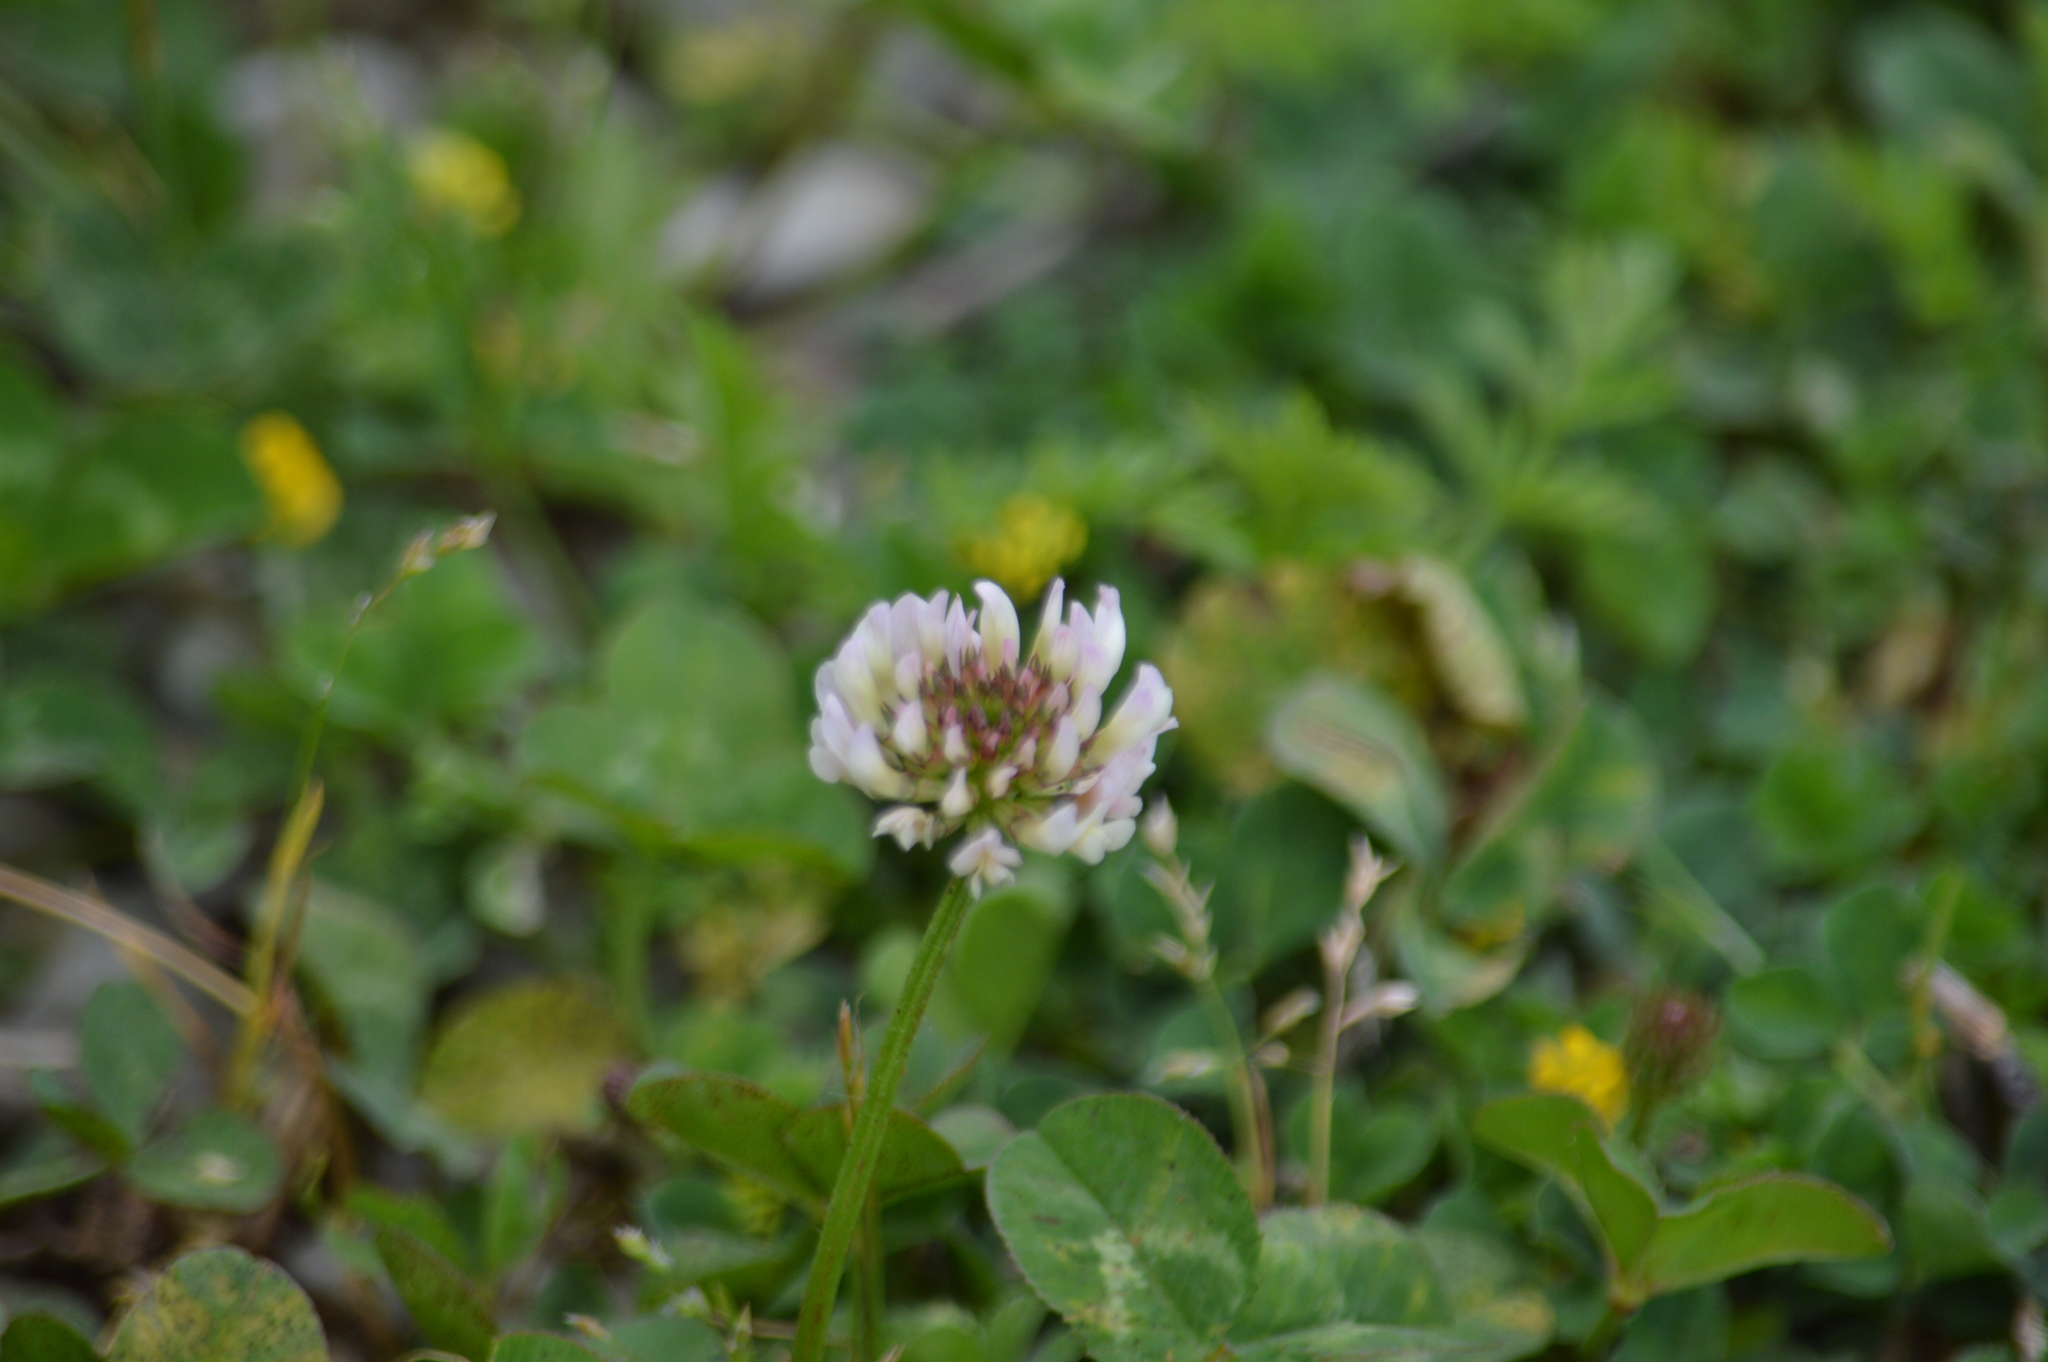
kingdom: Plantae
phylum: Tracheophyta
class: Magnoliopsida
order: Fabales
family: Fabaceae
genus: Trifolium
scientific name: Trifolium repens
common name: White clover
